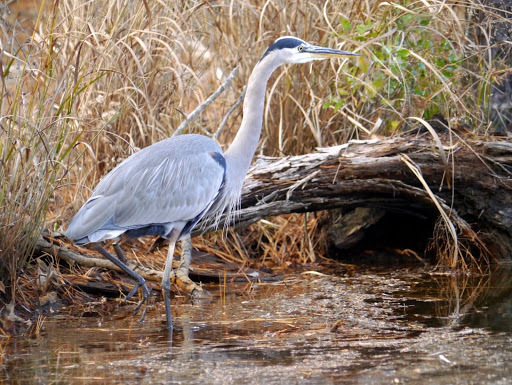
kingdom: Animalia
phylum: Chordata
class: Aves
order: Pelecaniformes
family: Ardeidae
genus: Ardea
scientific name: Ardea herodias
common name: Great blue heron
